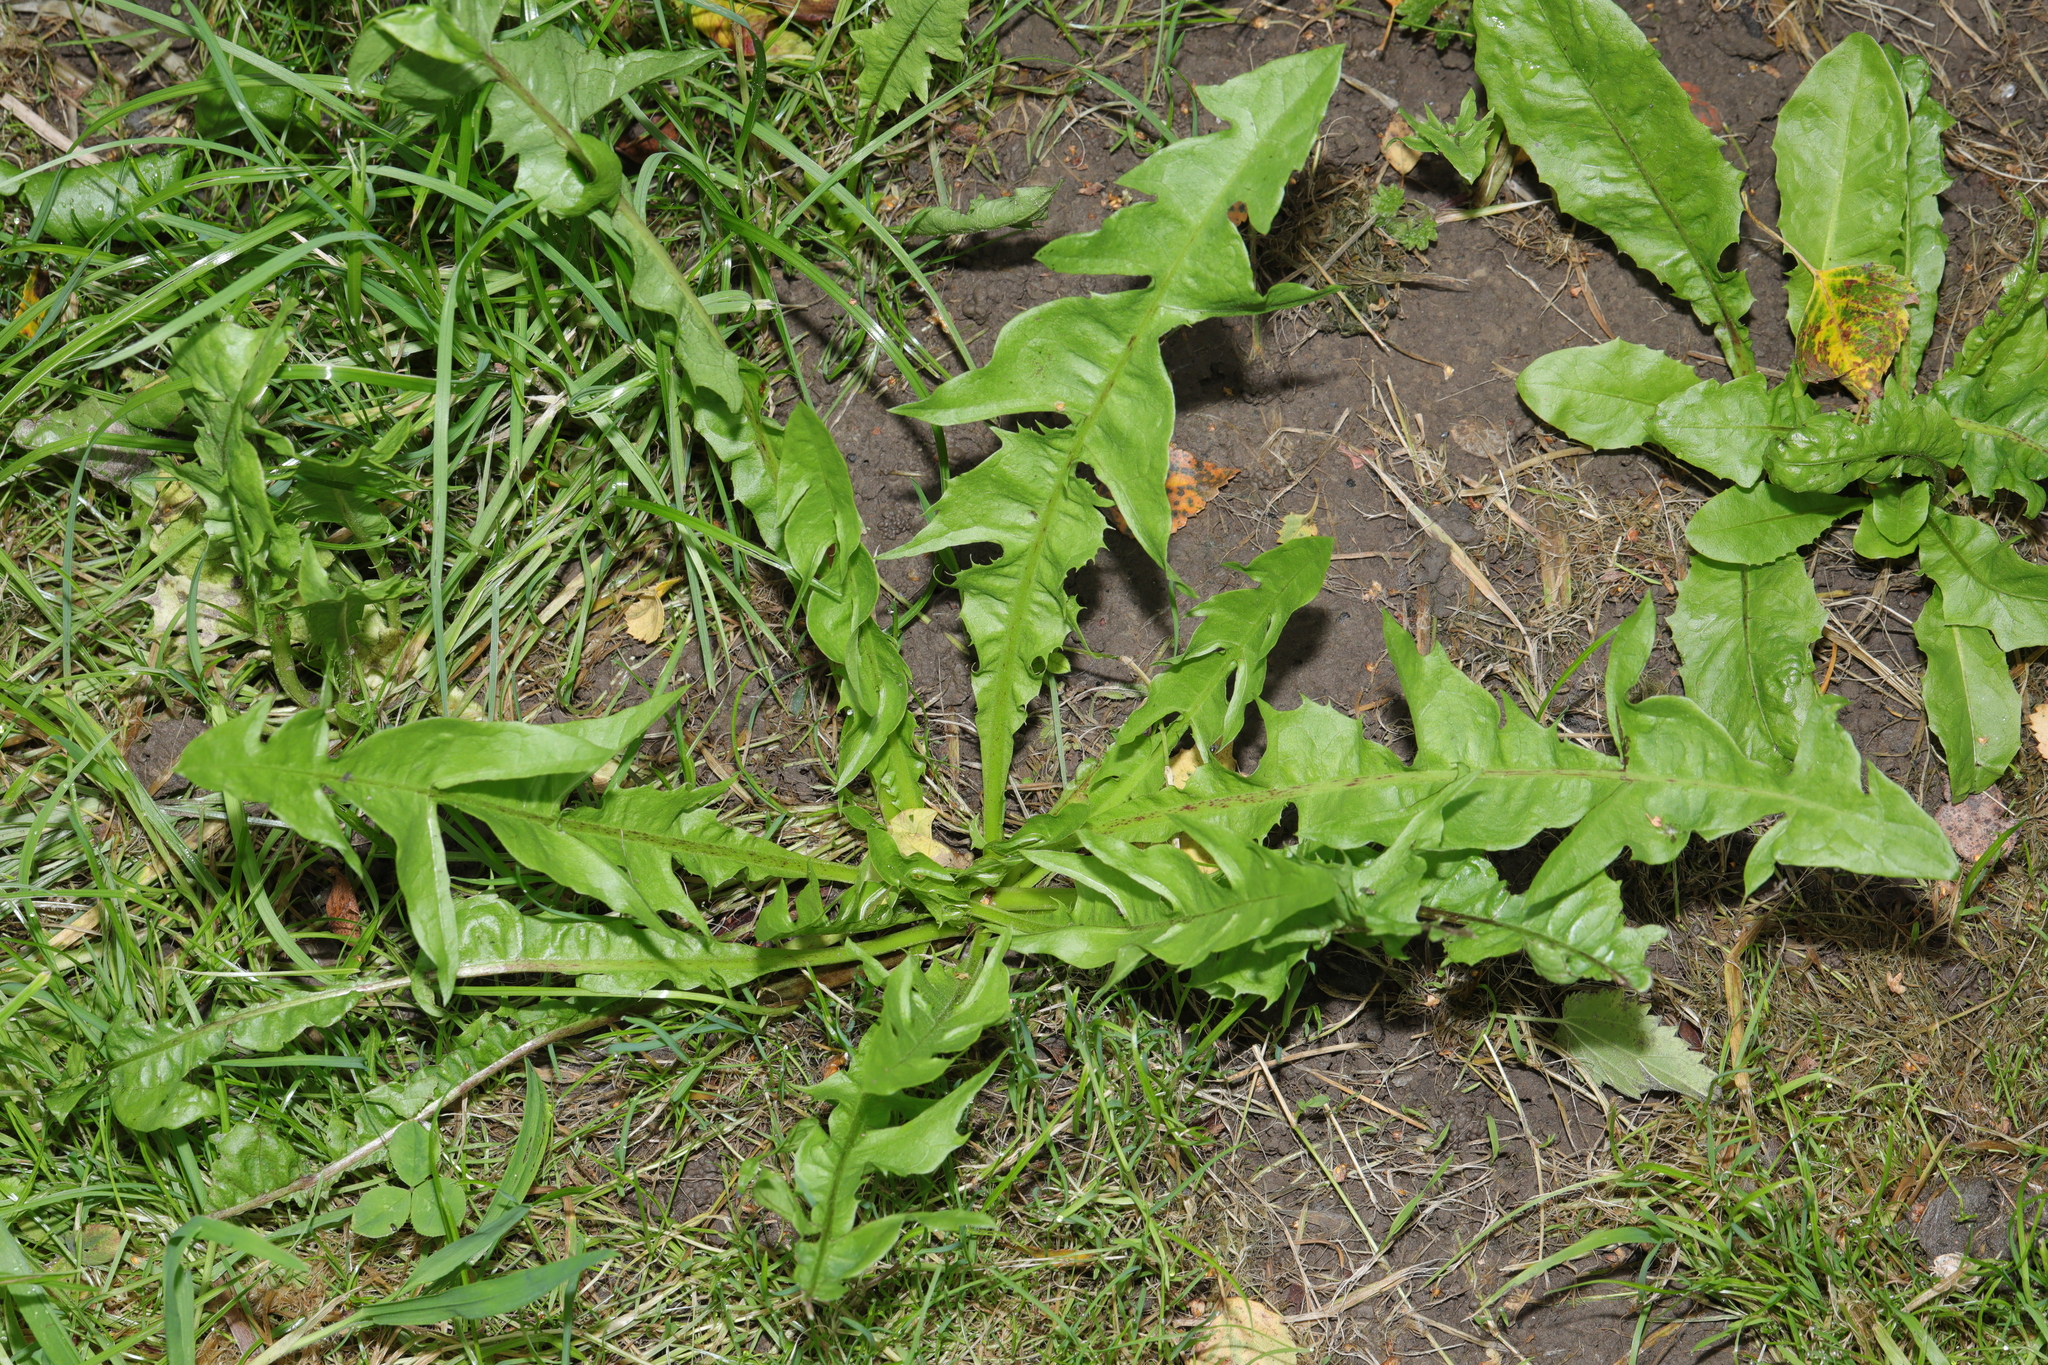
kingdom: Plantae
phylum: Tracheophyta
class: Magnoliopsida
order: Asterales
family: Asteraceae
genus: Taraxacum
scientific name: Taraxacum officinale
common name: Common dandelion
